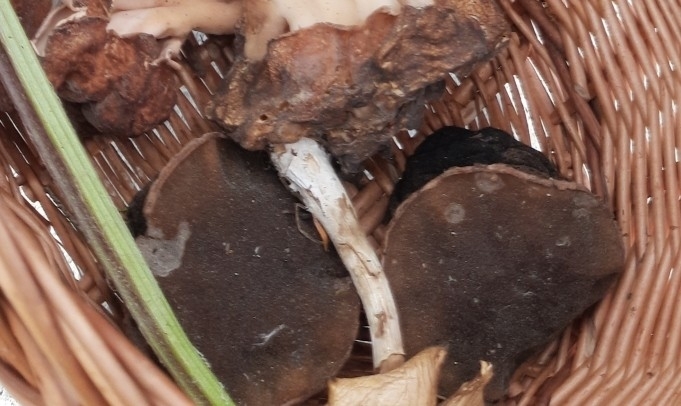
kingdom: Fungi
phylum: Ascomycota
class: Pezizomycetes
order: Pezizales
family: Sarcosomataceae
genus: Sarcosoma
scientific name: Sarcosoma globosum
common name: Charred-pancake cup
